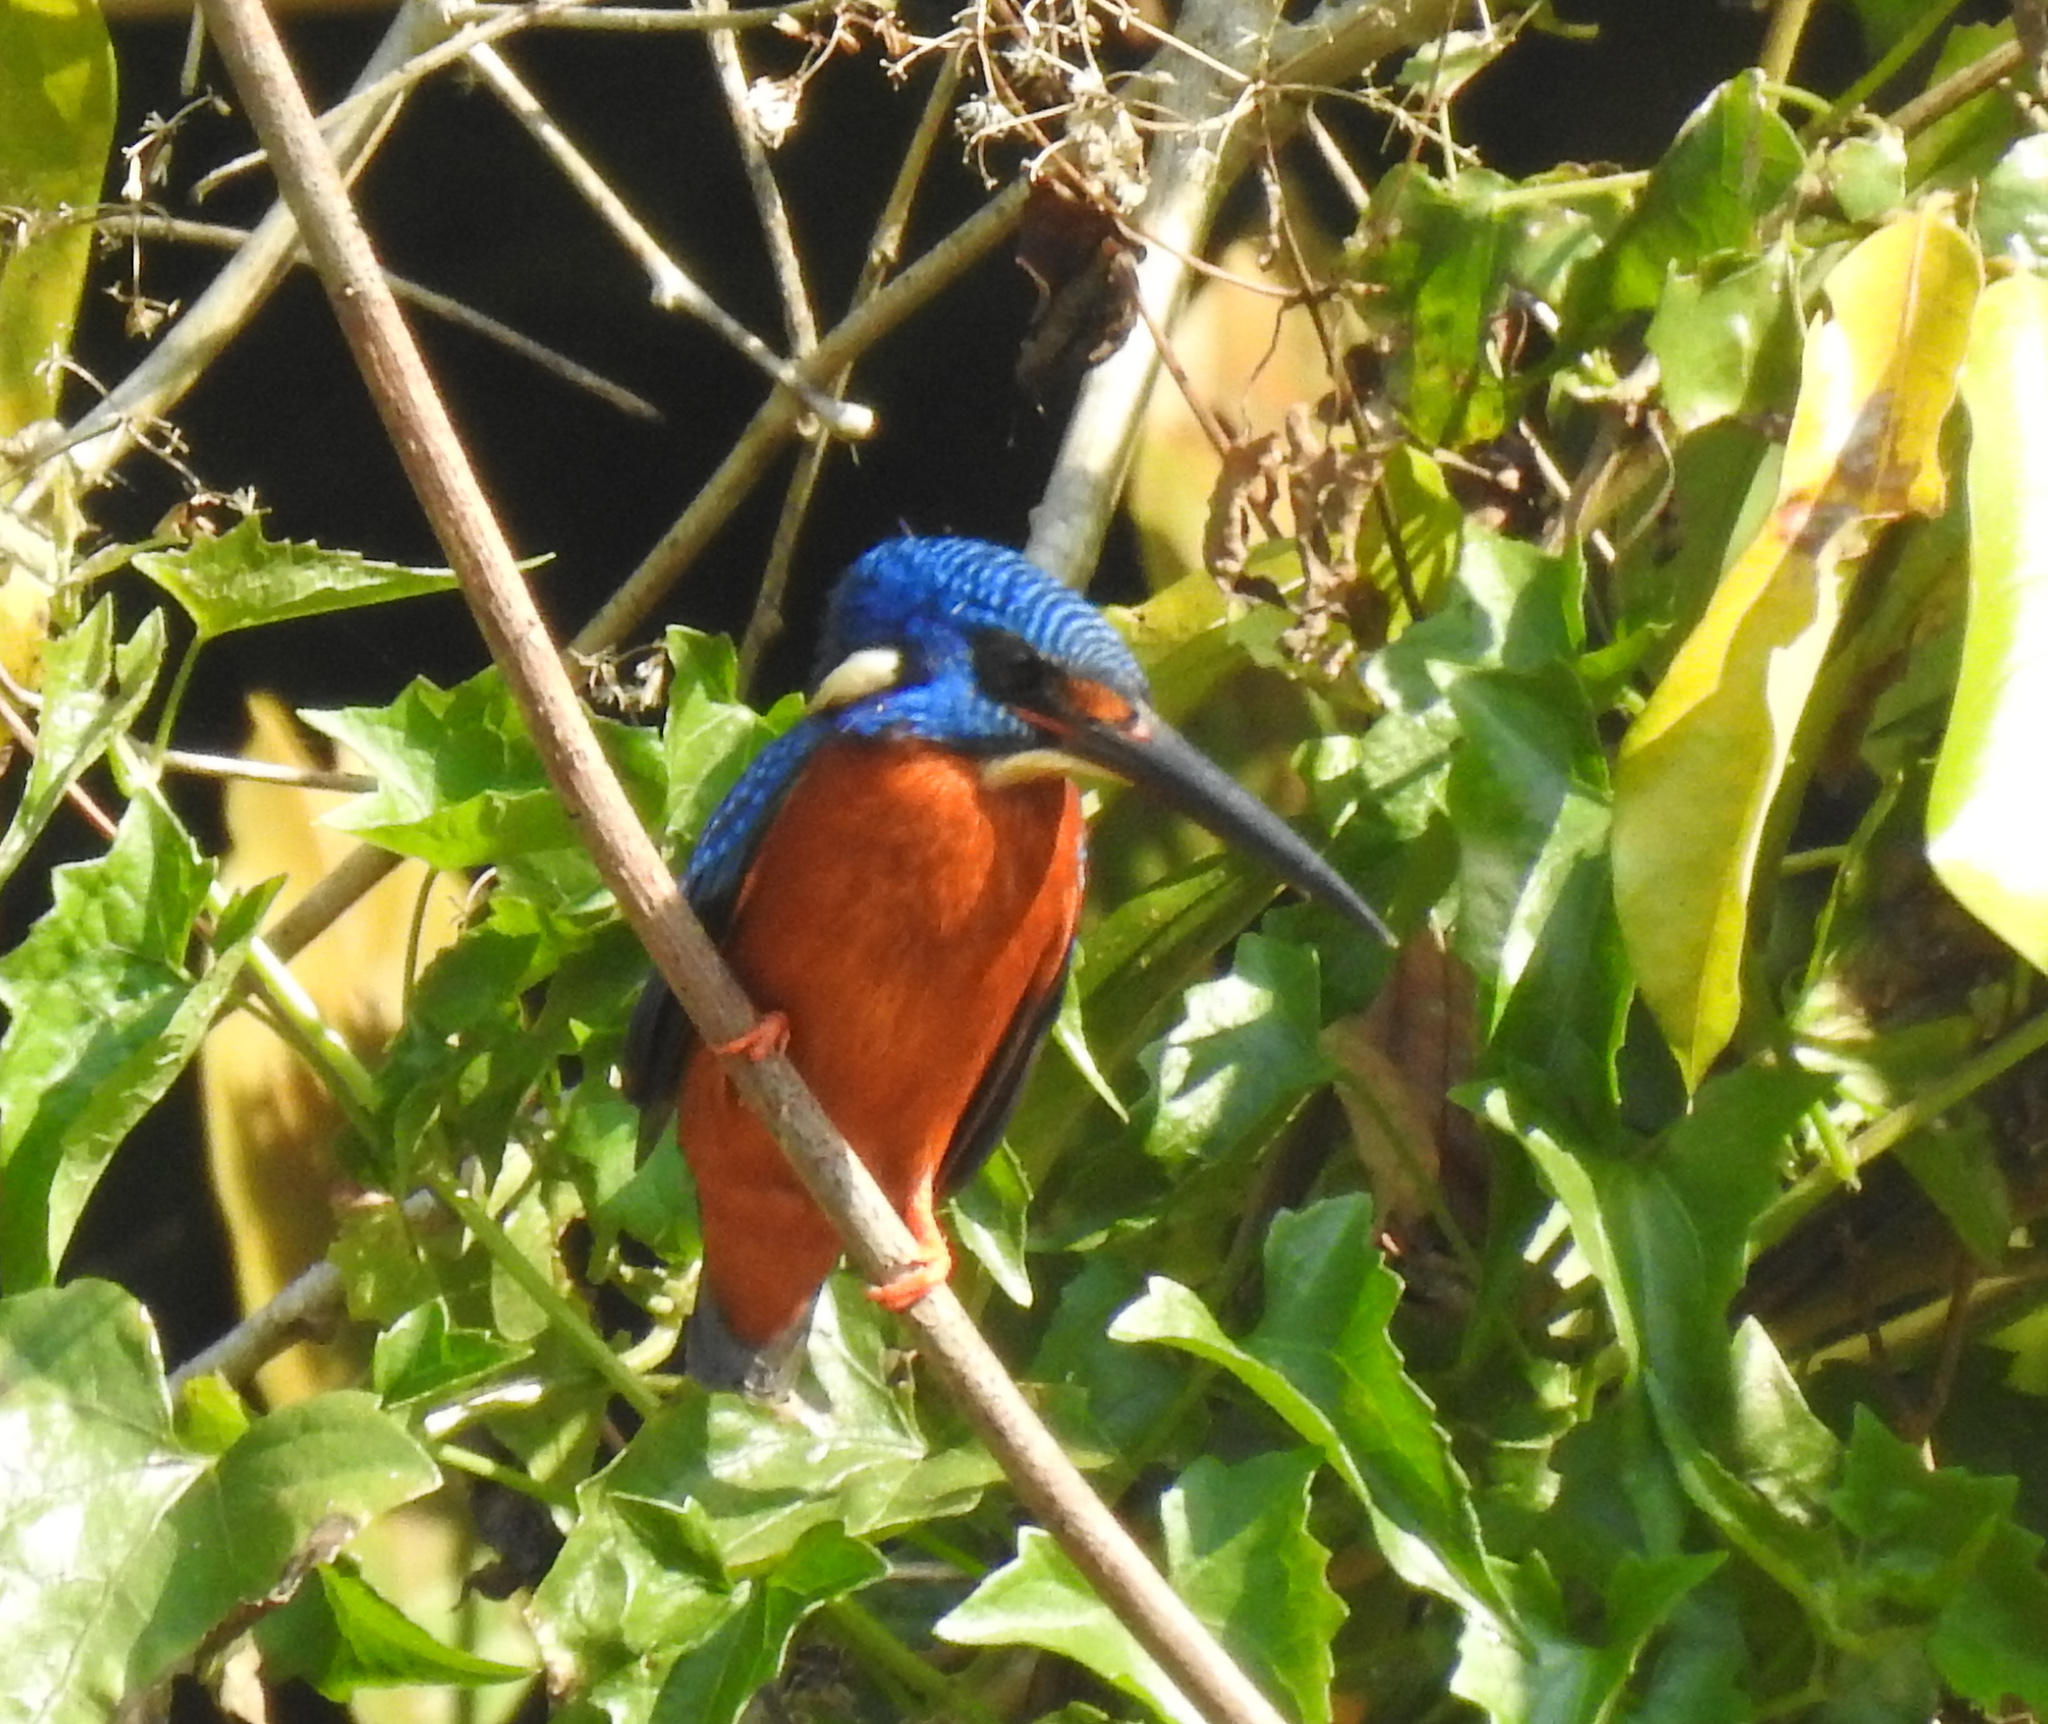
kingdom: Animalia
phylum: Chordata
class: Aves
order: Coraciiformes
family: Alcedinidae
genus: Alcedo
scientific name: Alcedo meninting
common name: Blue-eared kingfisher
